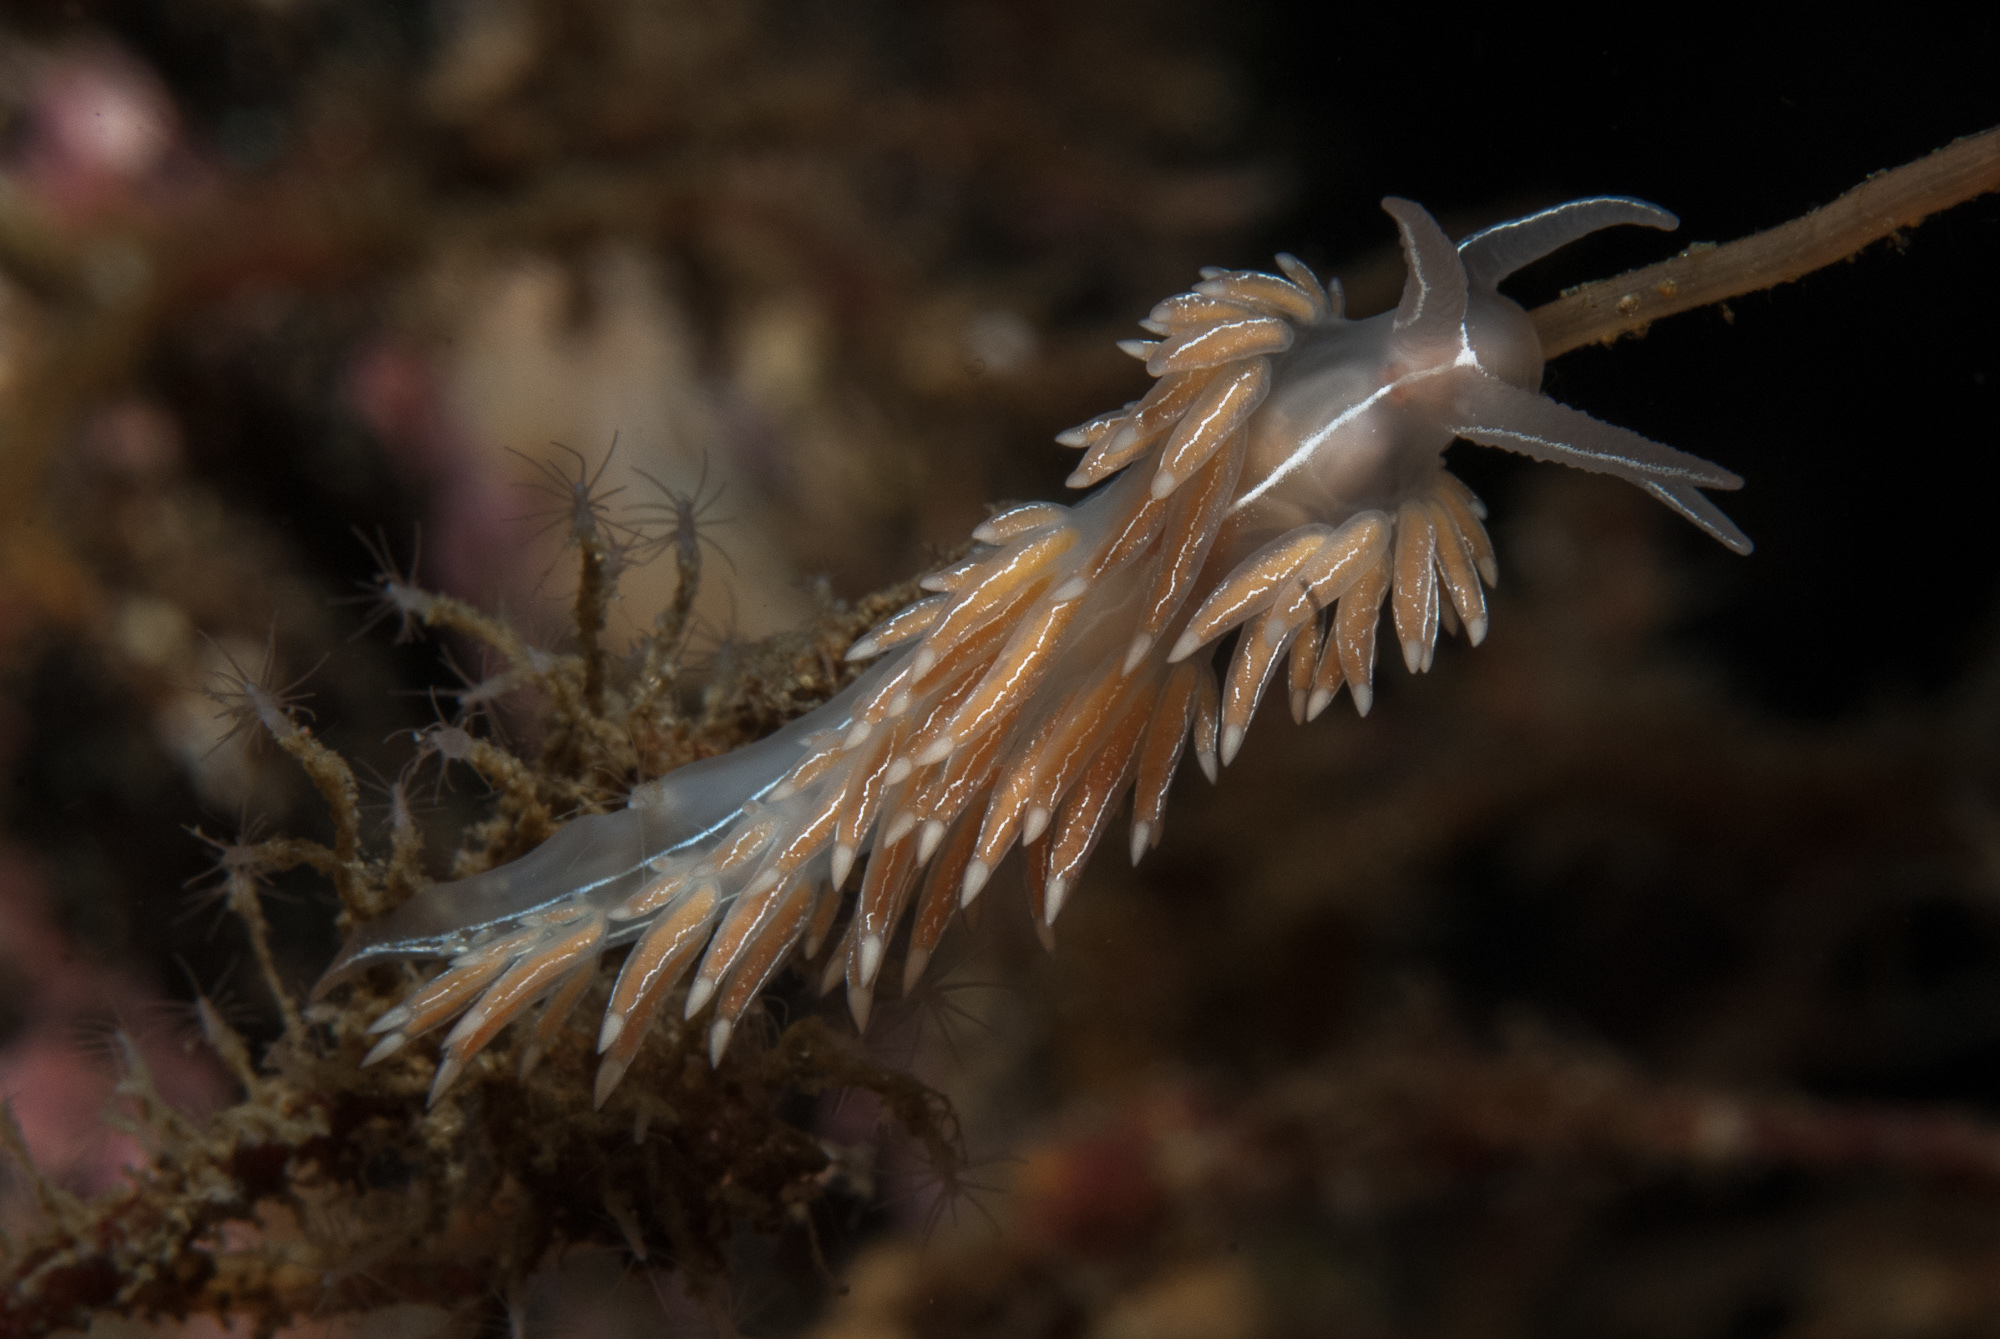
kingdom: Animalia
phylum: Mollusca
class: Gastropoda
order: Nudibranchia
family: Coryphellidae
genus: Coryphella
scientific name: Coryphella chriskaugei
